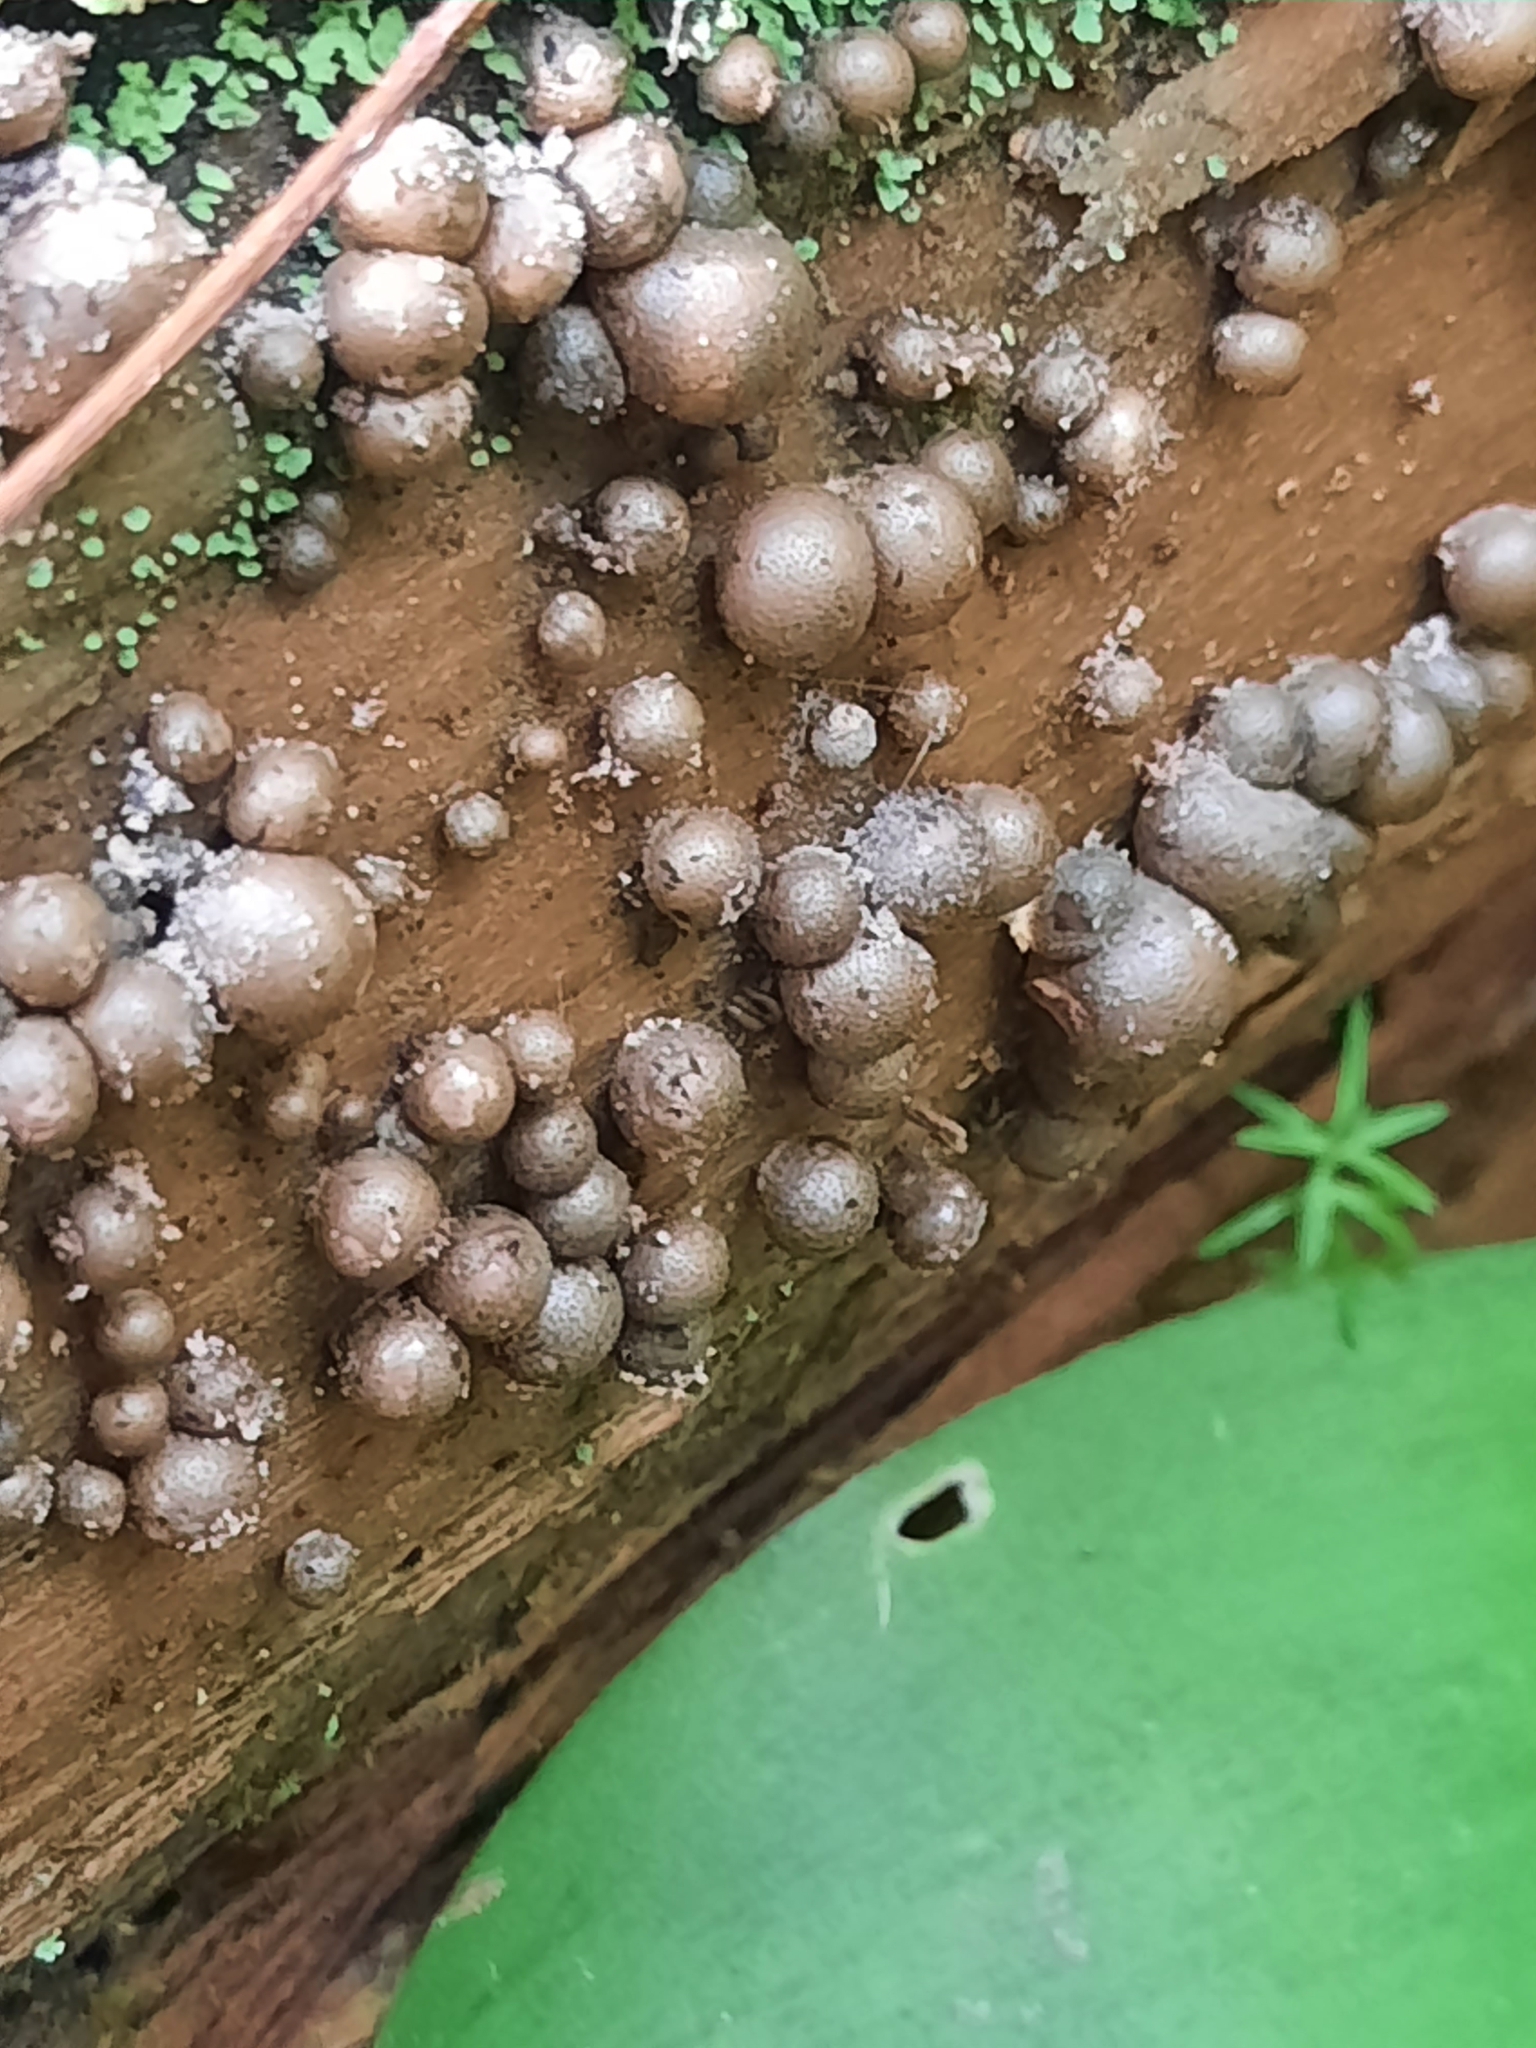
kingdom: Protozoa
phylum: Mycetozoa
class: Myxomycetes
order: Cribrariales
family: Tubiferaceae
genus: Lycogala
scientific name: Lycogala epidendrum
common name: Wolf's milk
